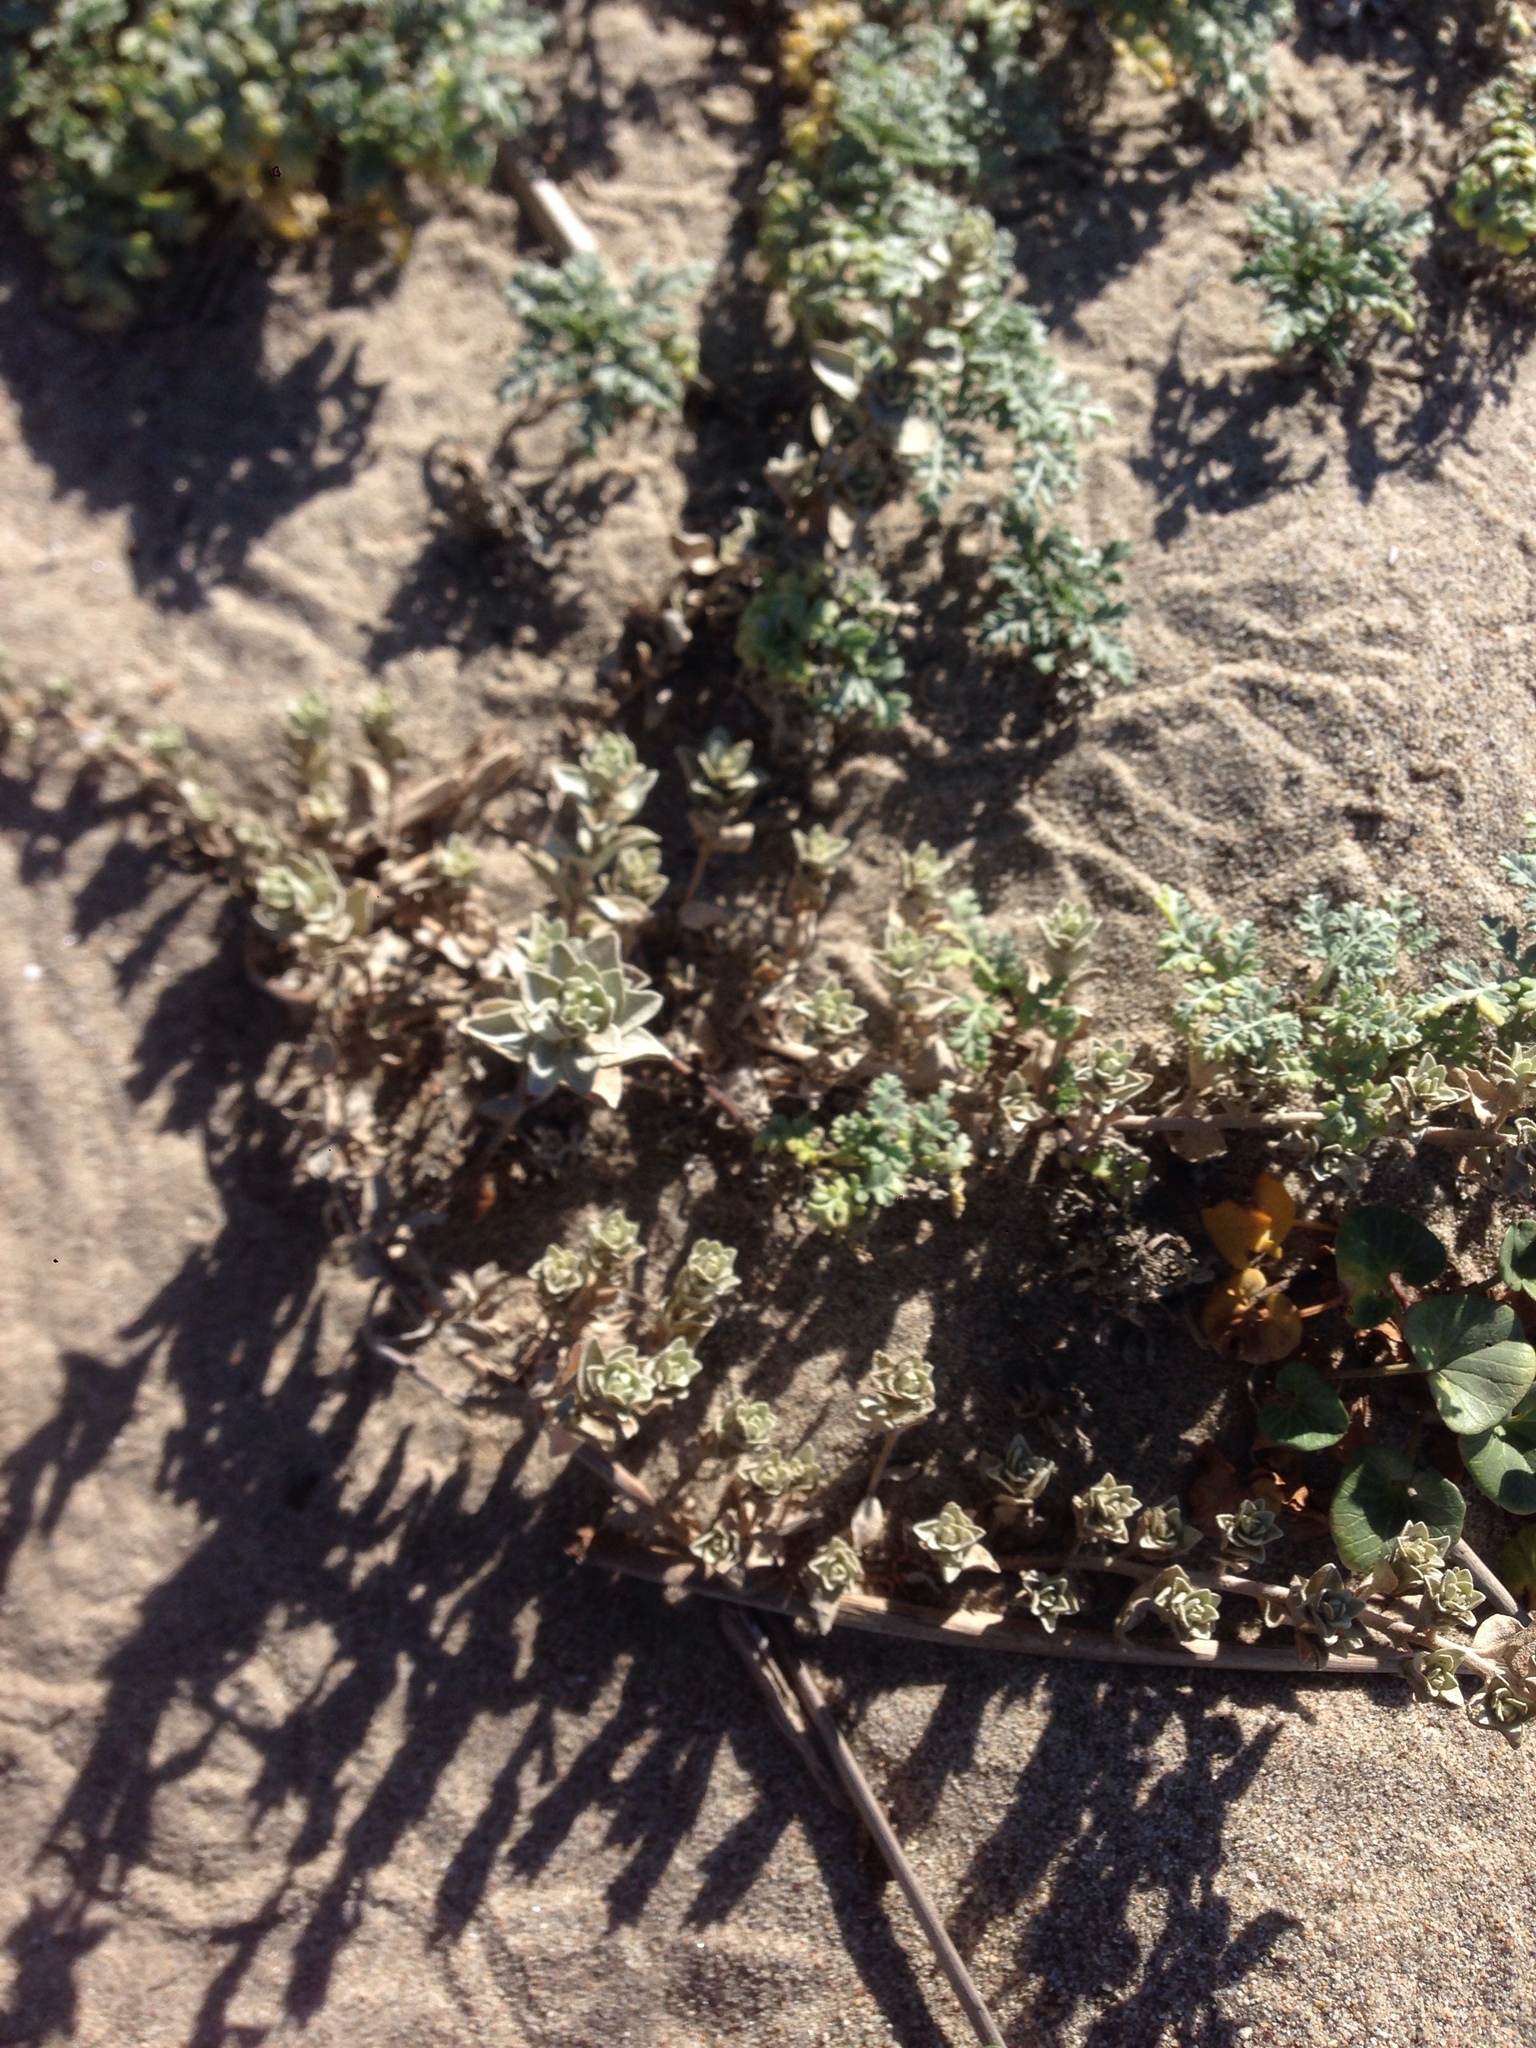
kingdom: Plantae
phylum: Tracheophyta
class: Magnoliopsida
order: Caryophyllales
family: Amaranthaceae
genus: Atriplex
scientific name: Atriplex leucophylla
